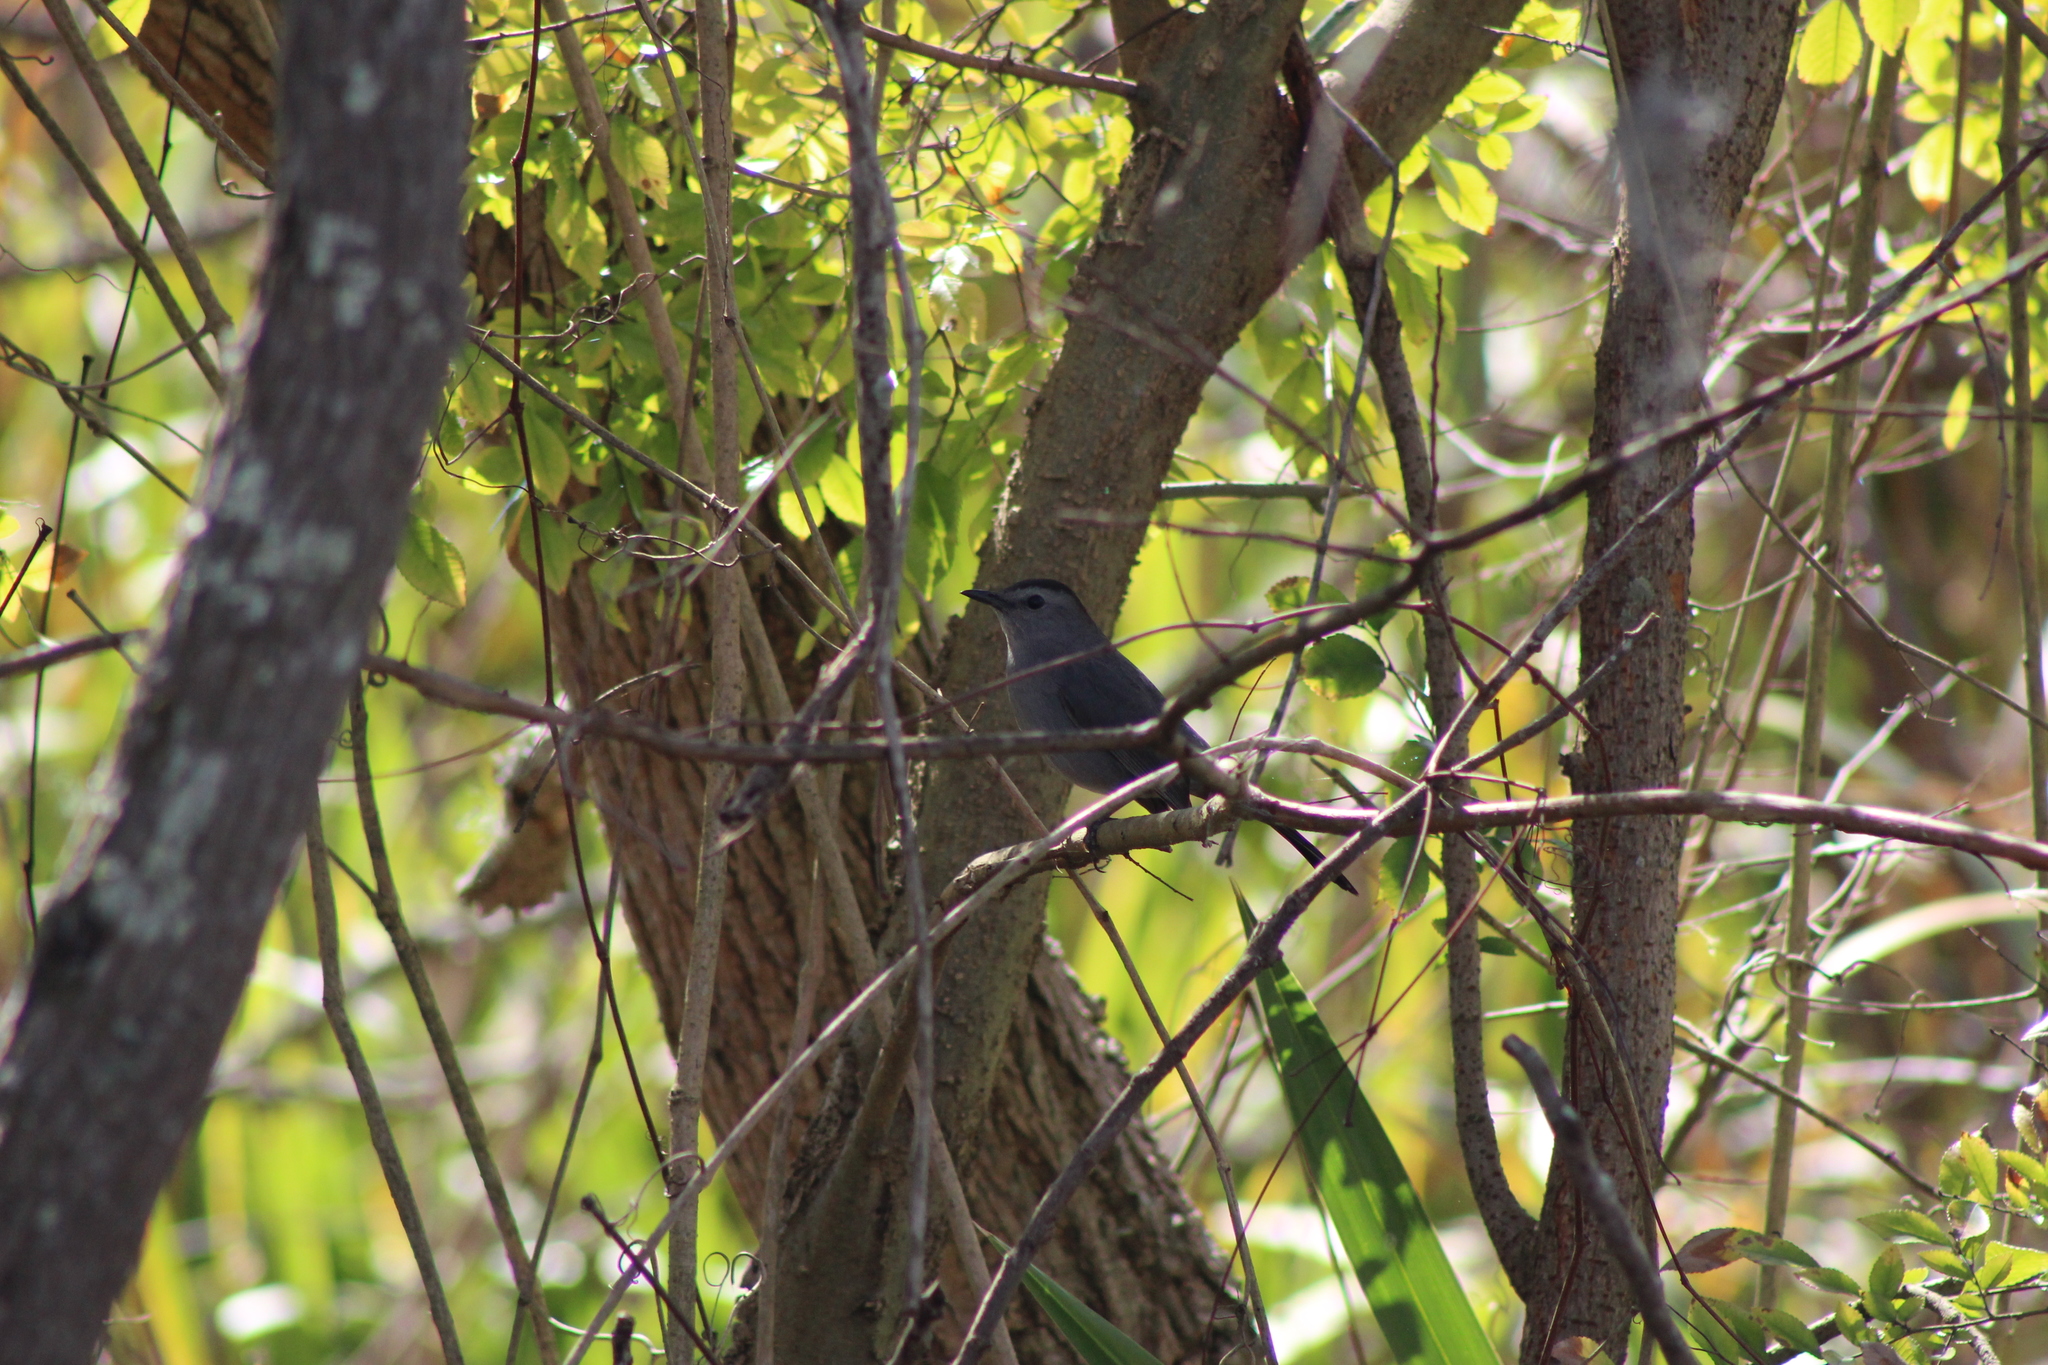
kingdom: Animalia
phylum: Chordata
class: Aves
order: Passeriformes
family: Mimidae
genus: Dumetella
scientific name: Dumetella carolinensis
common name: Gray catbird
